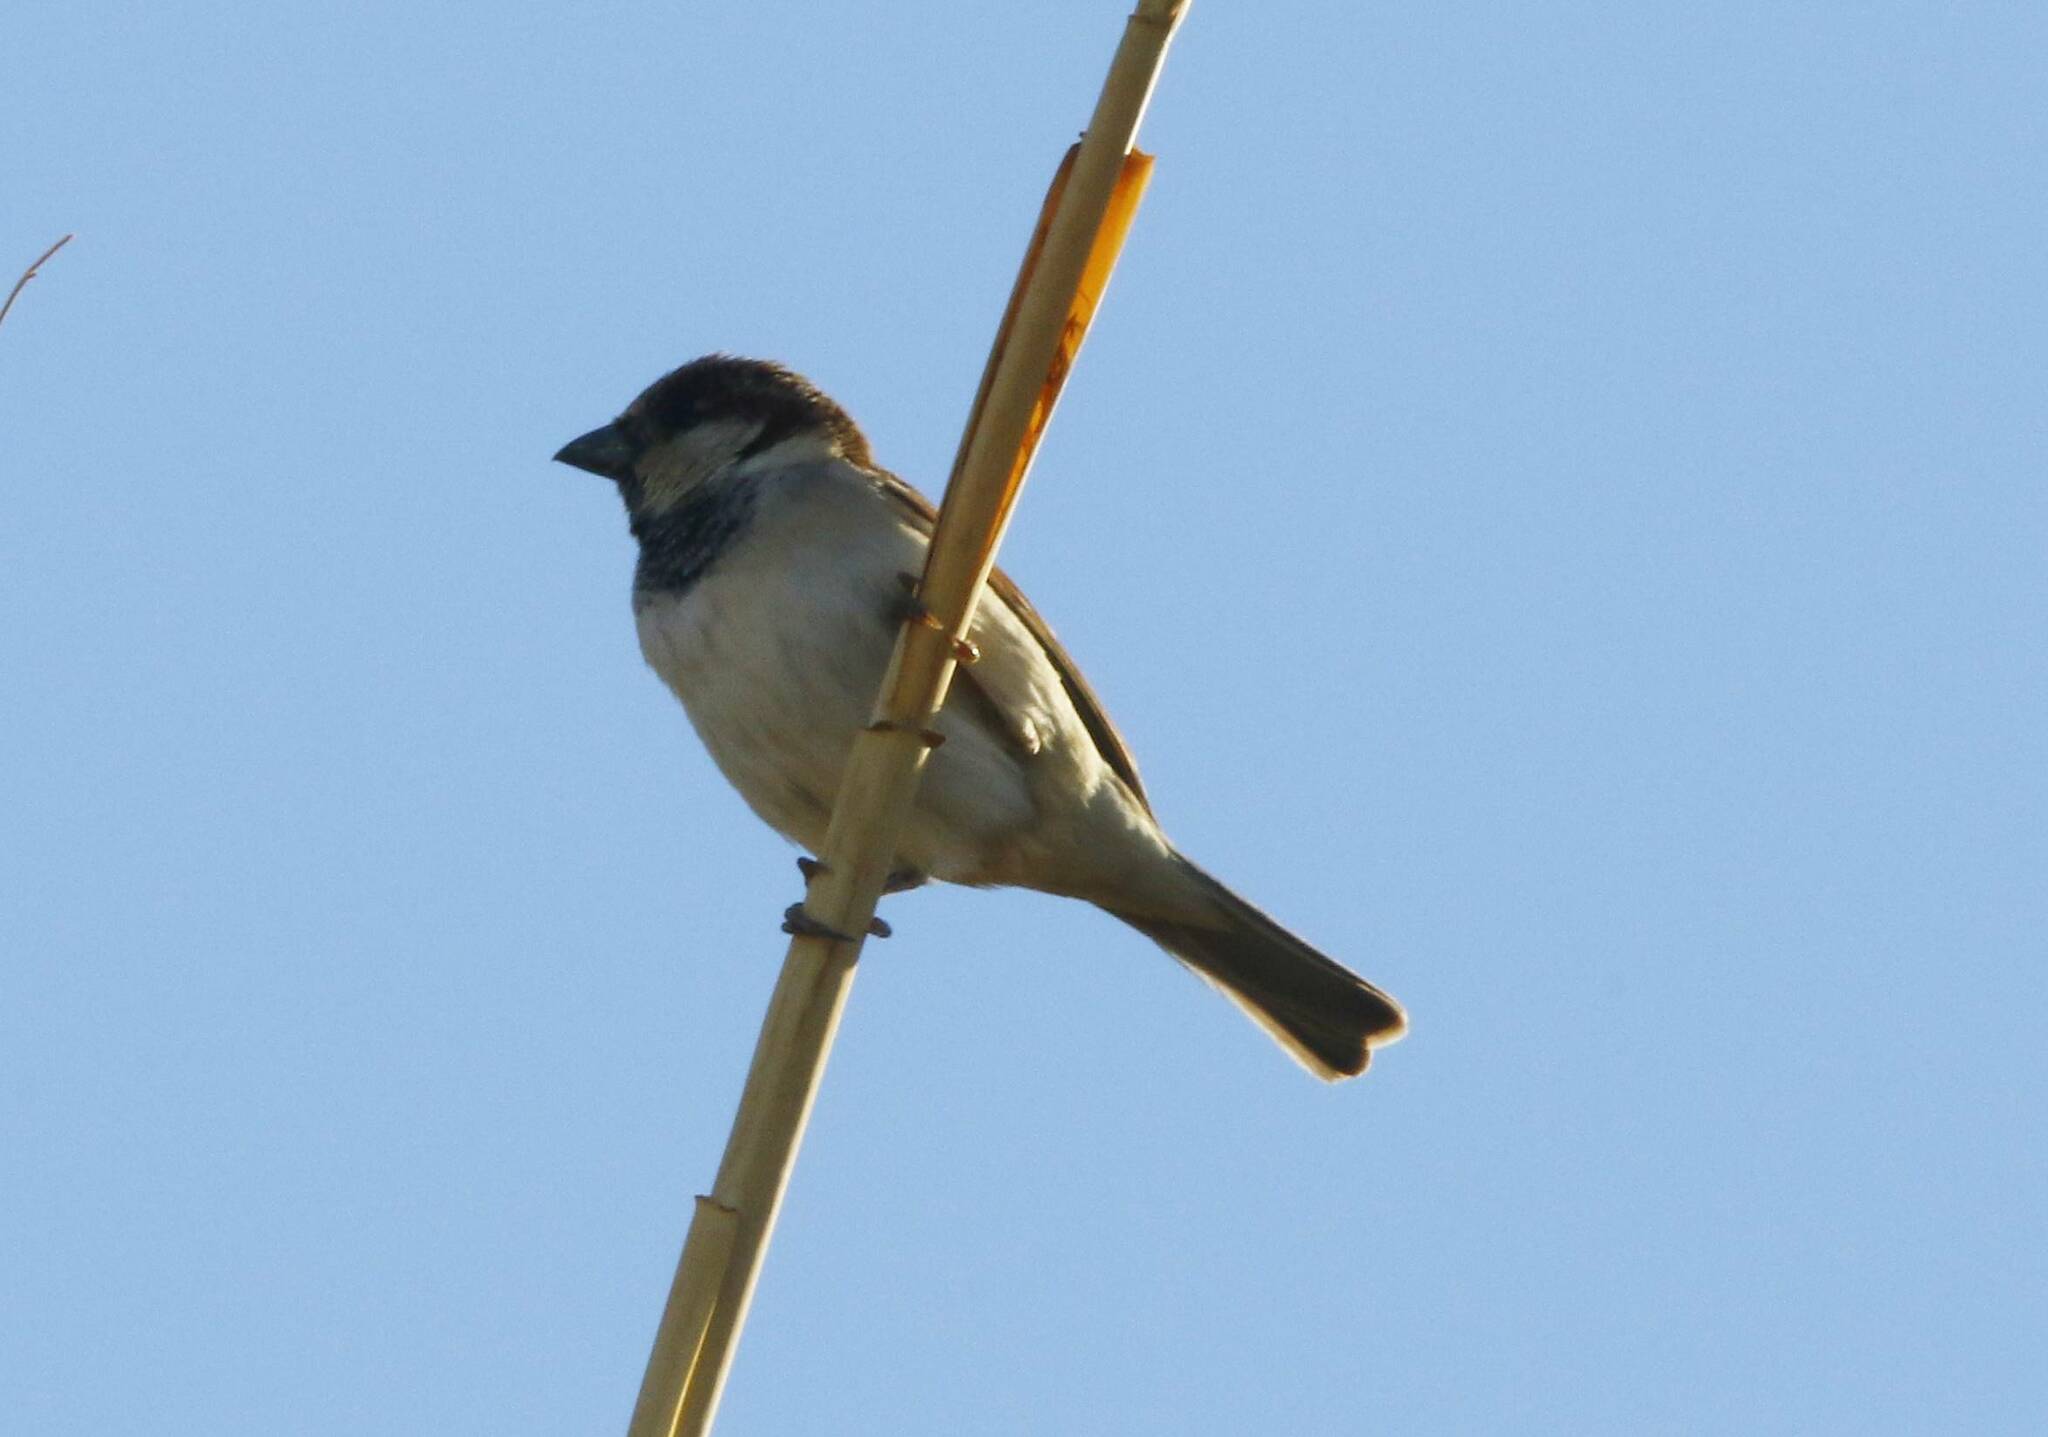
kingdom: Animalia
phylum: Chordata
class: Aves
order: Passeriformes
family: Passeridae
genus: Passer
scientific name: Passer domesticus
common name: House sparrow
